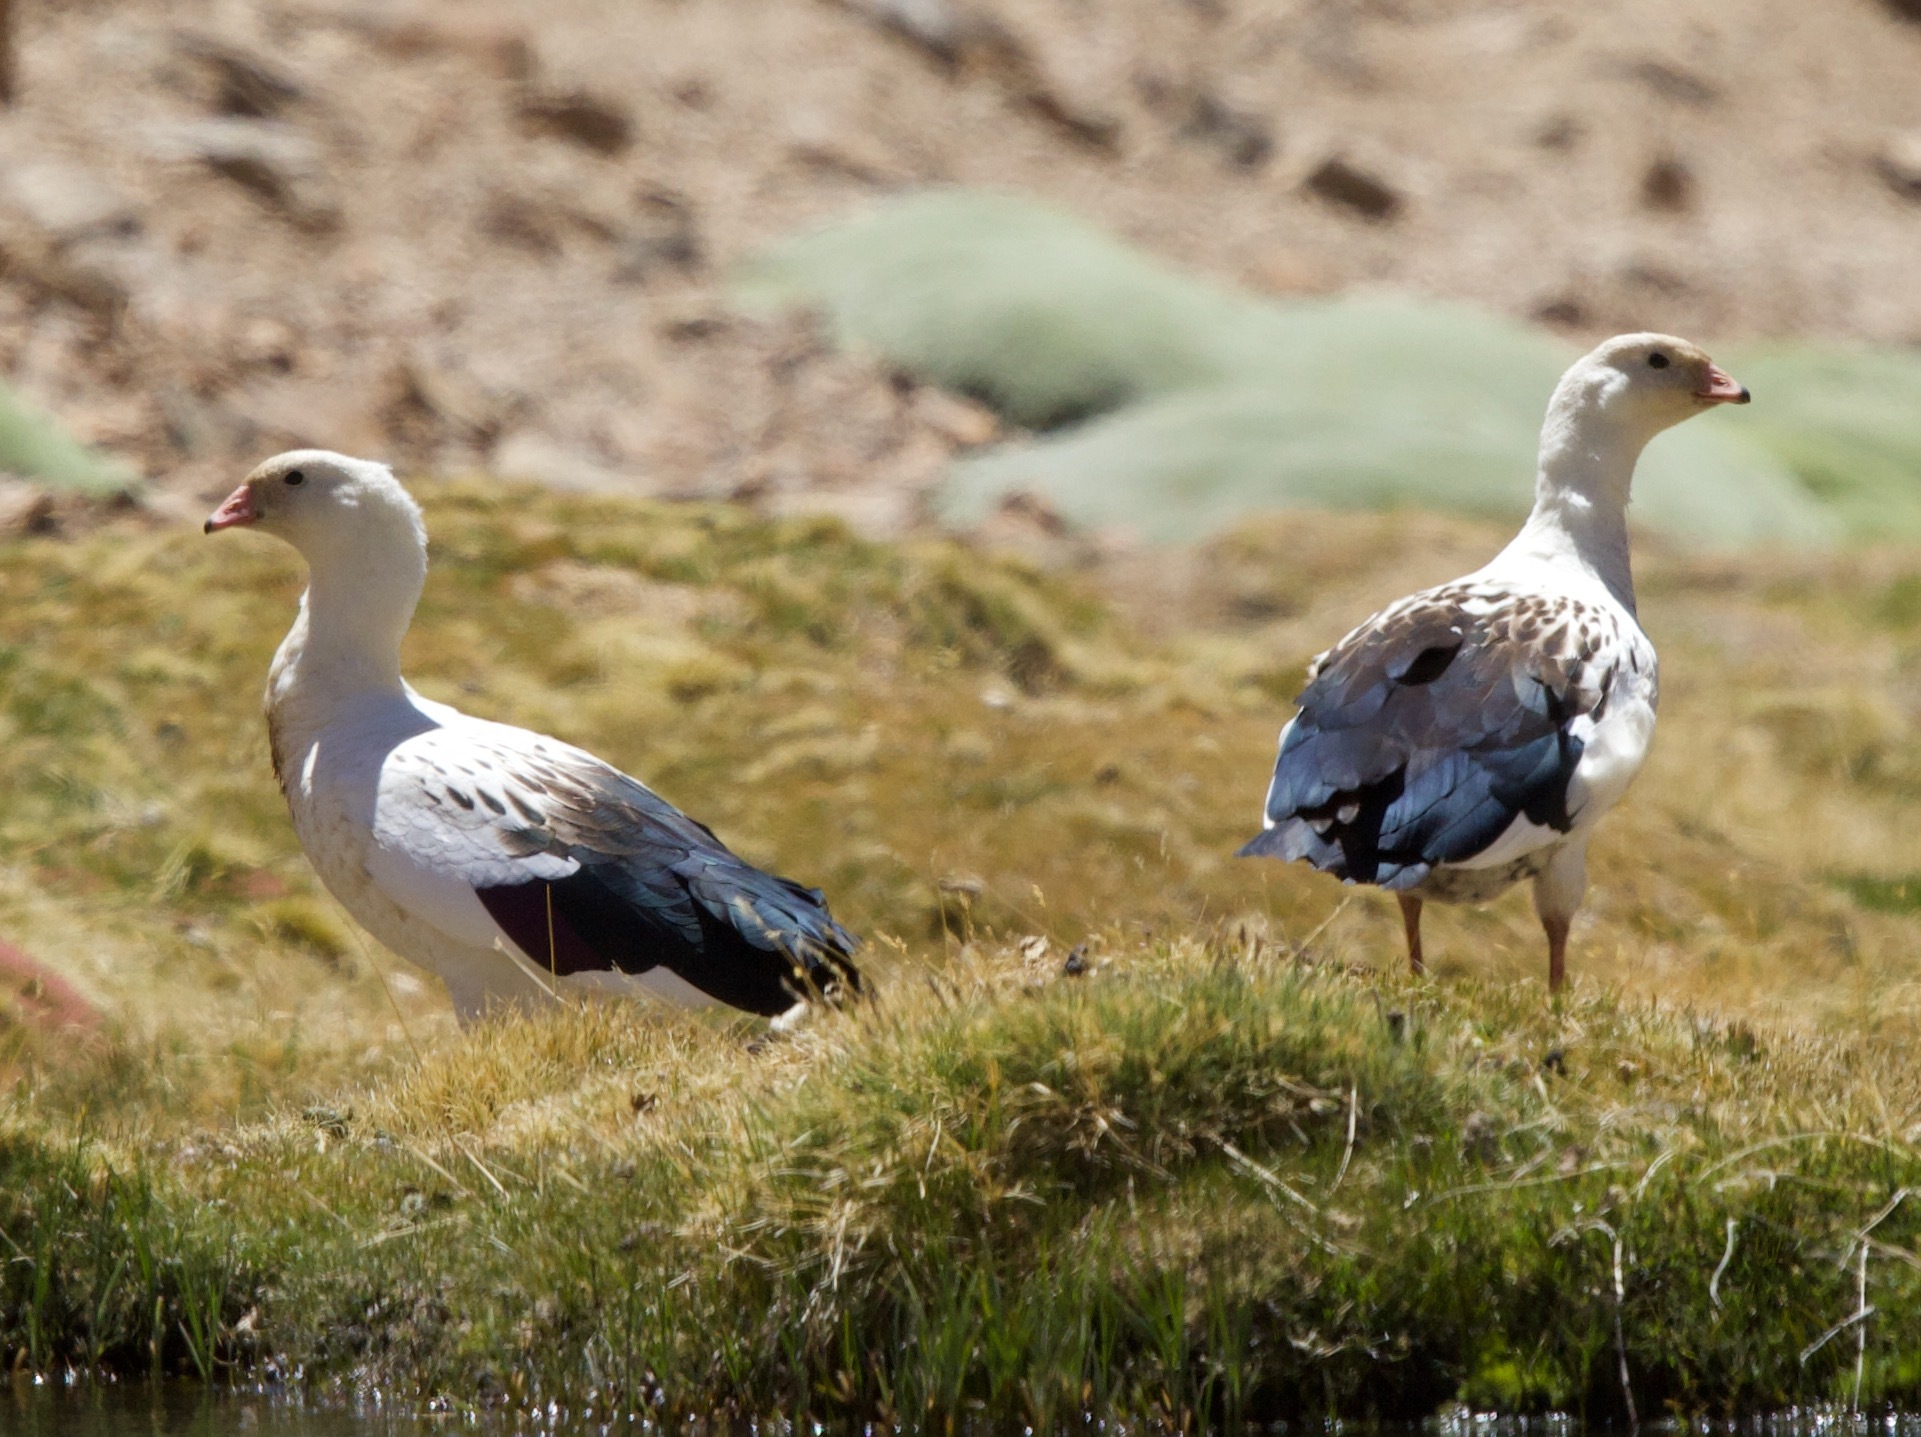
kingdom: Animalia
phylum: Chordata
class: Aves
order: Anseriformes
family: Anatidae
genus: Chloephaga
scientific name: Chloephaga melanoptera
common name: Andean goose
